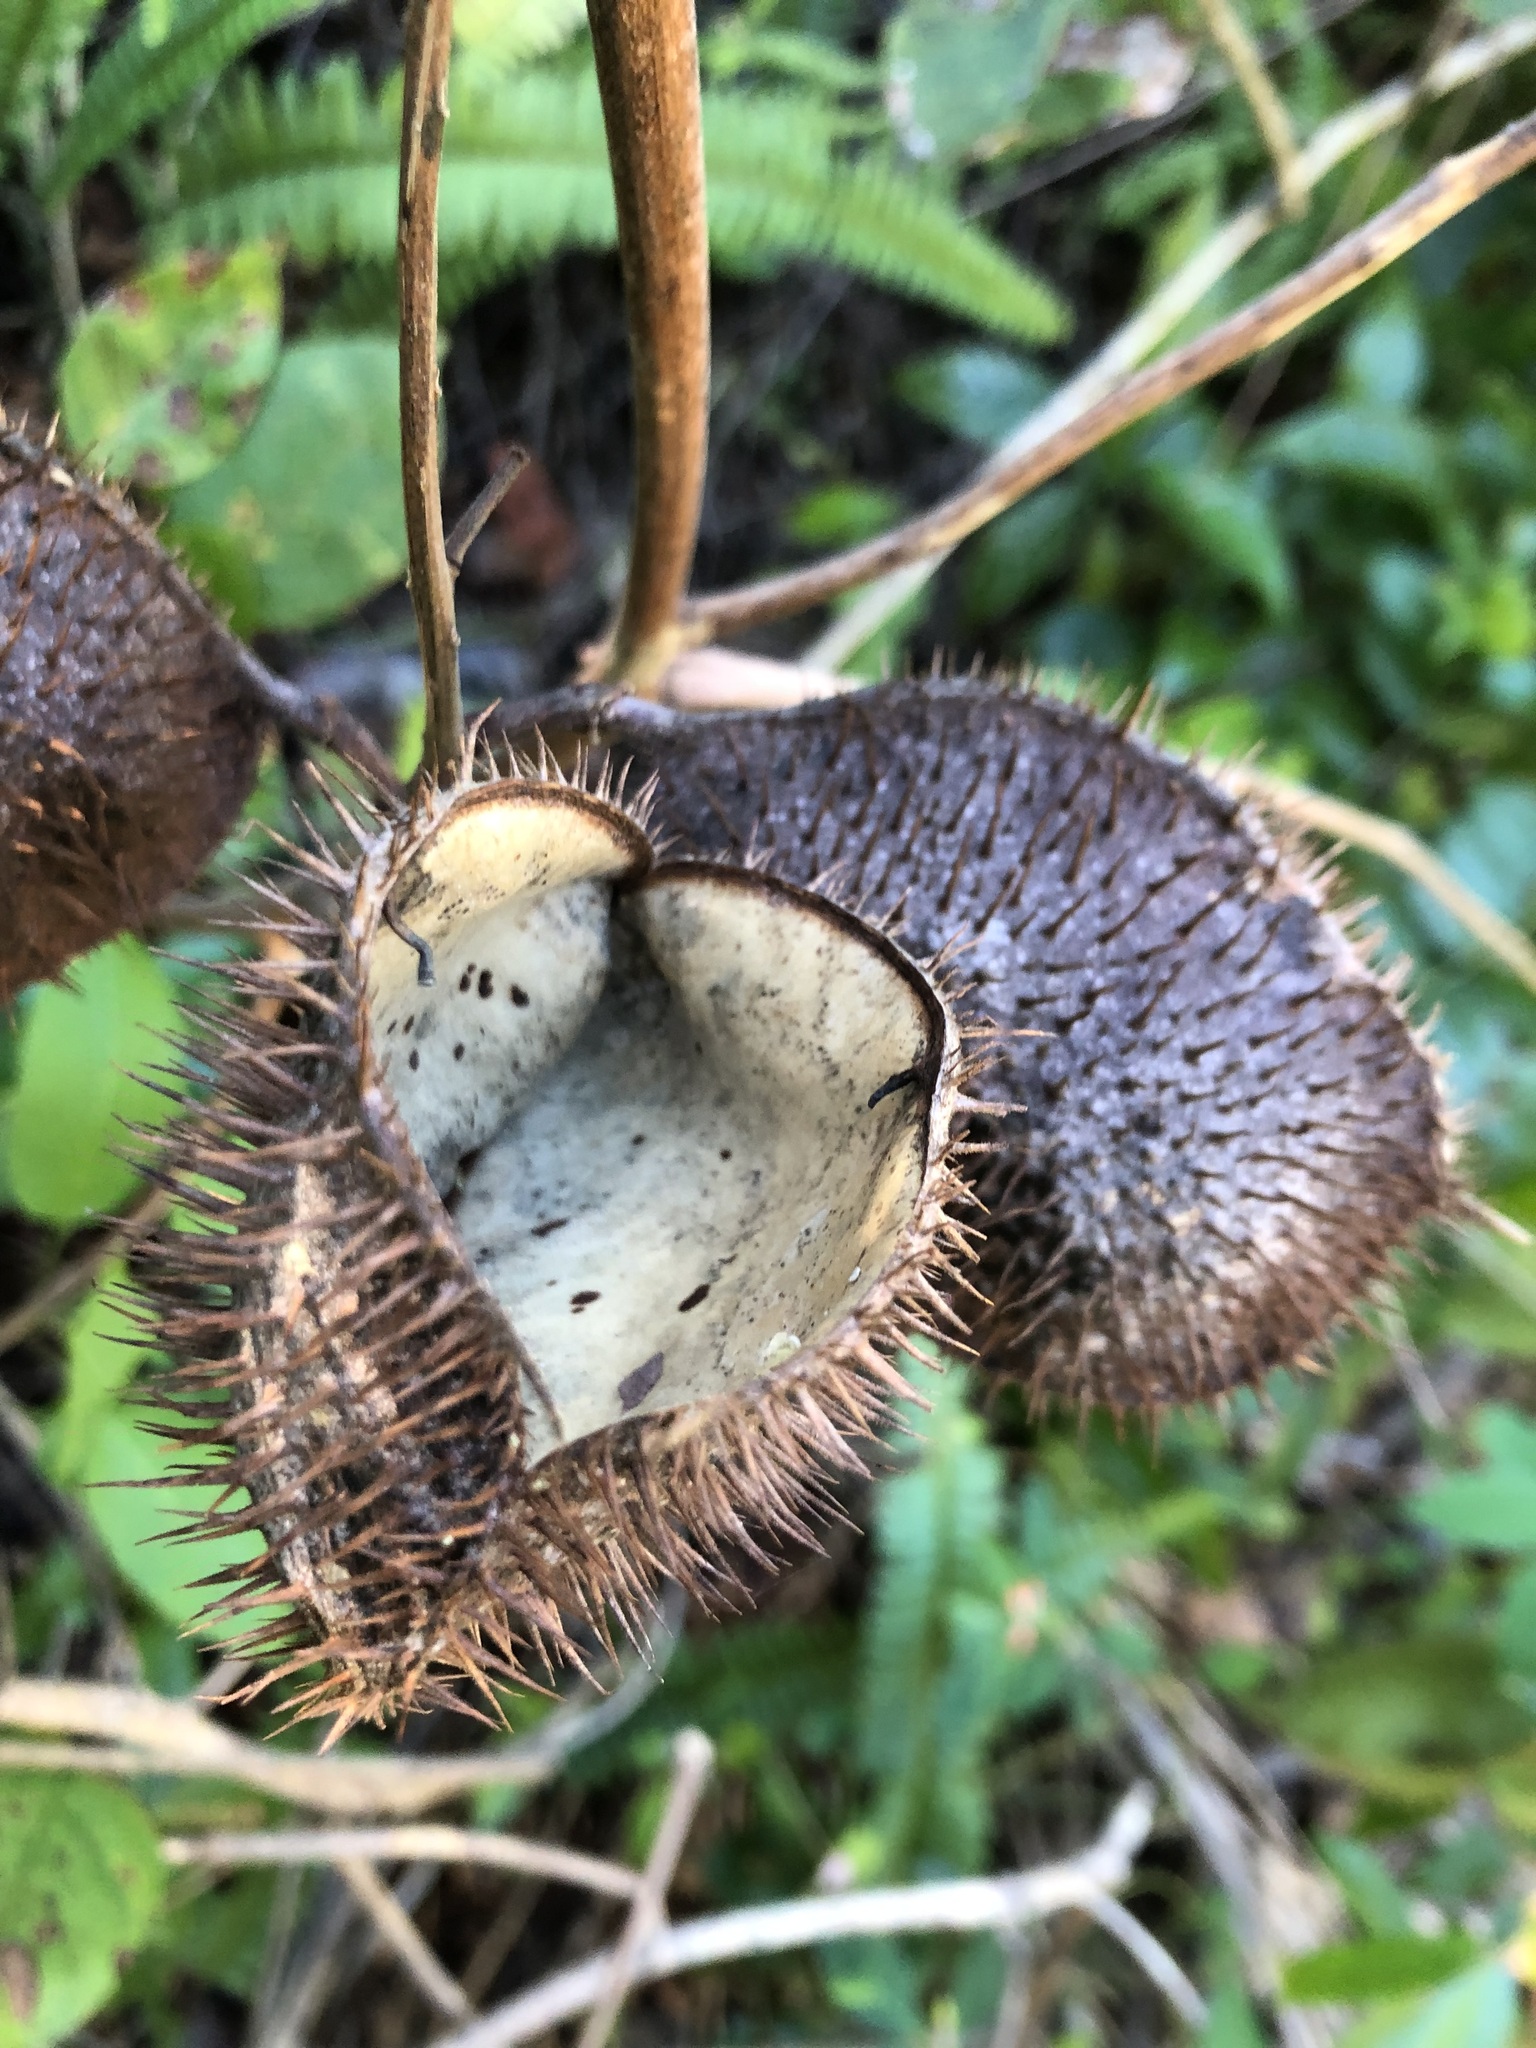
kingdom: Plantae
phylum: Tracheophyta
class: Magnoliopsida
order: Fabales
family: Fabaceae
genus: Guilandina
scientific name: Guilandina bonduc
